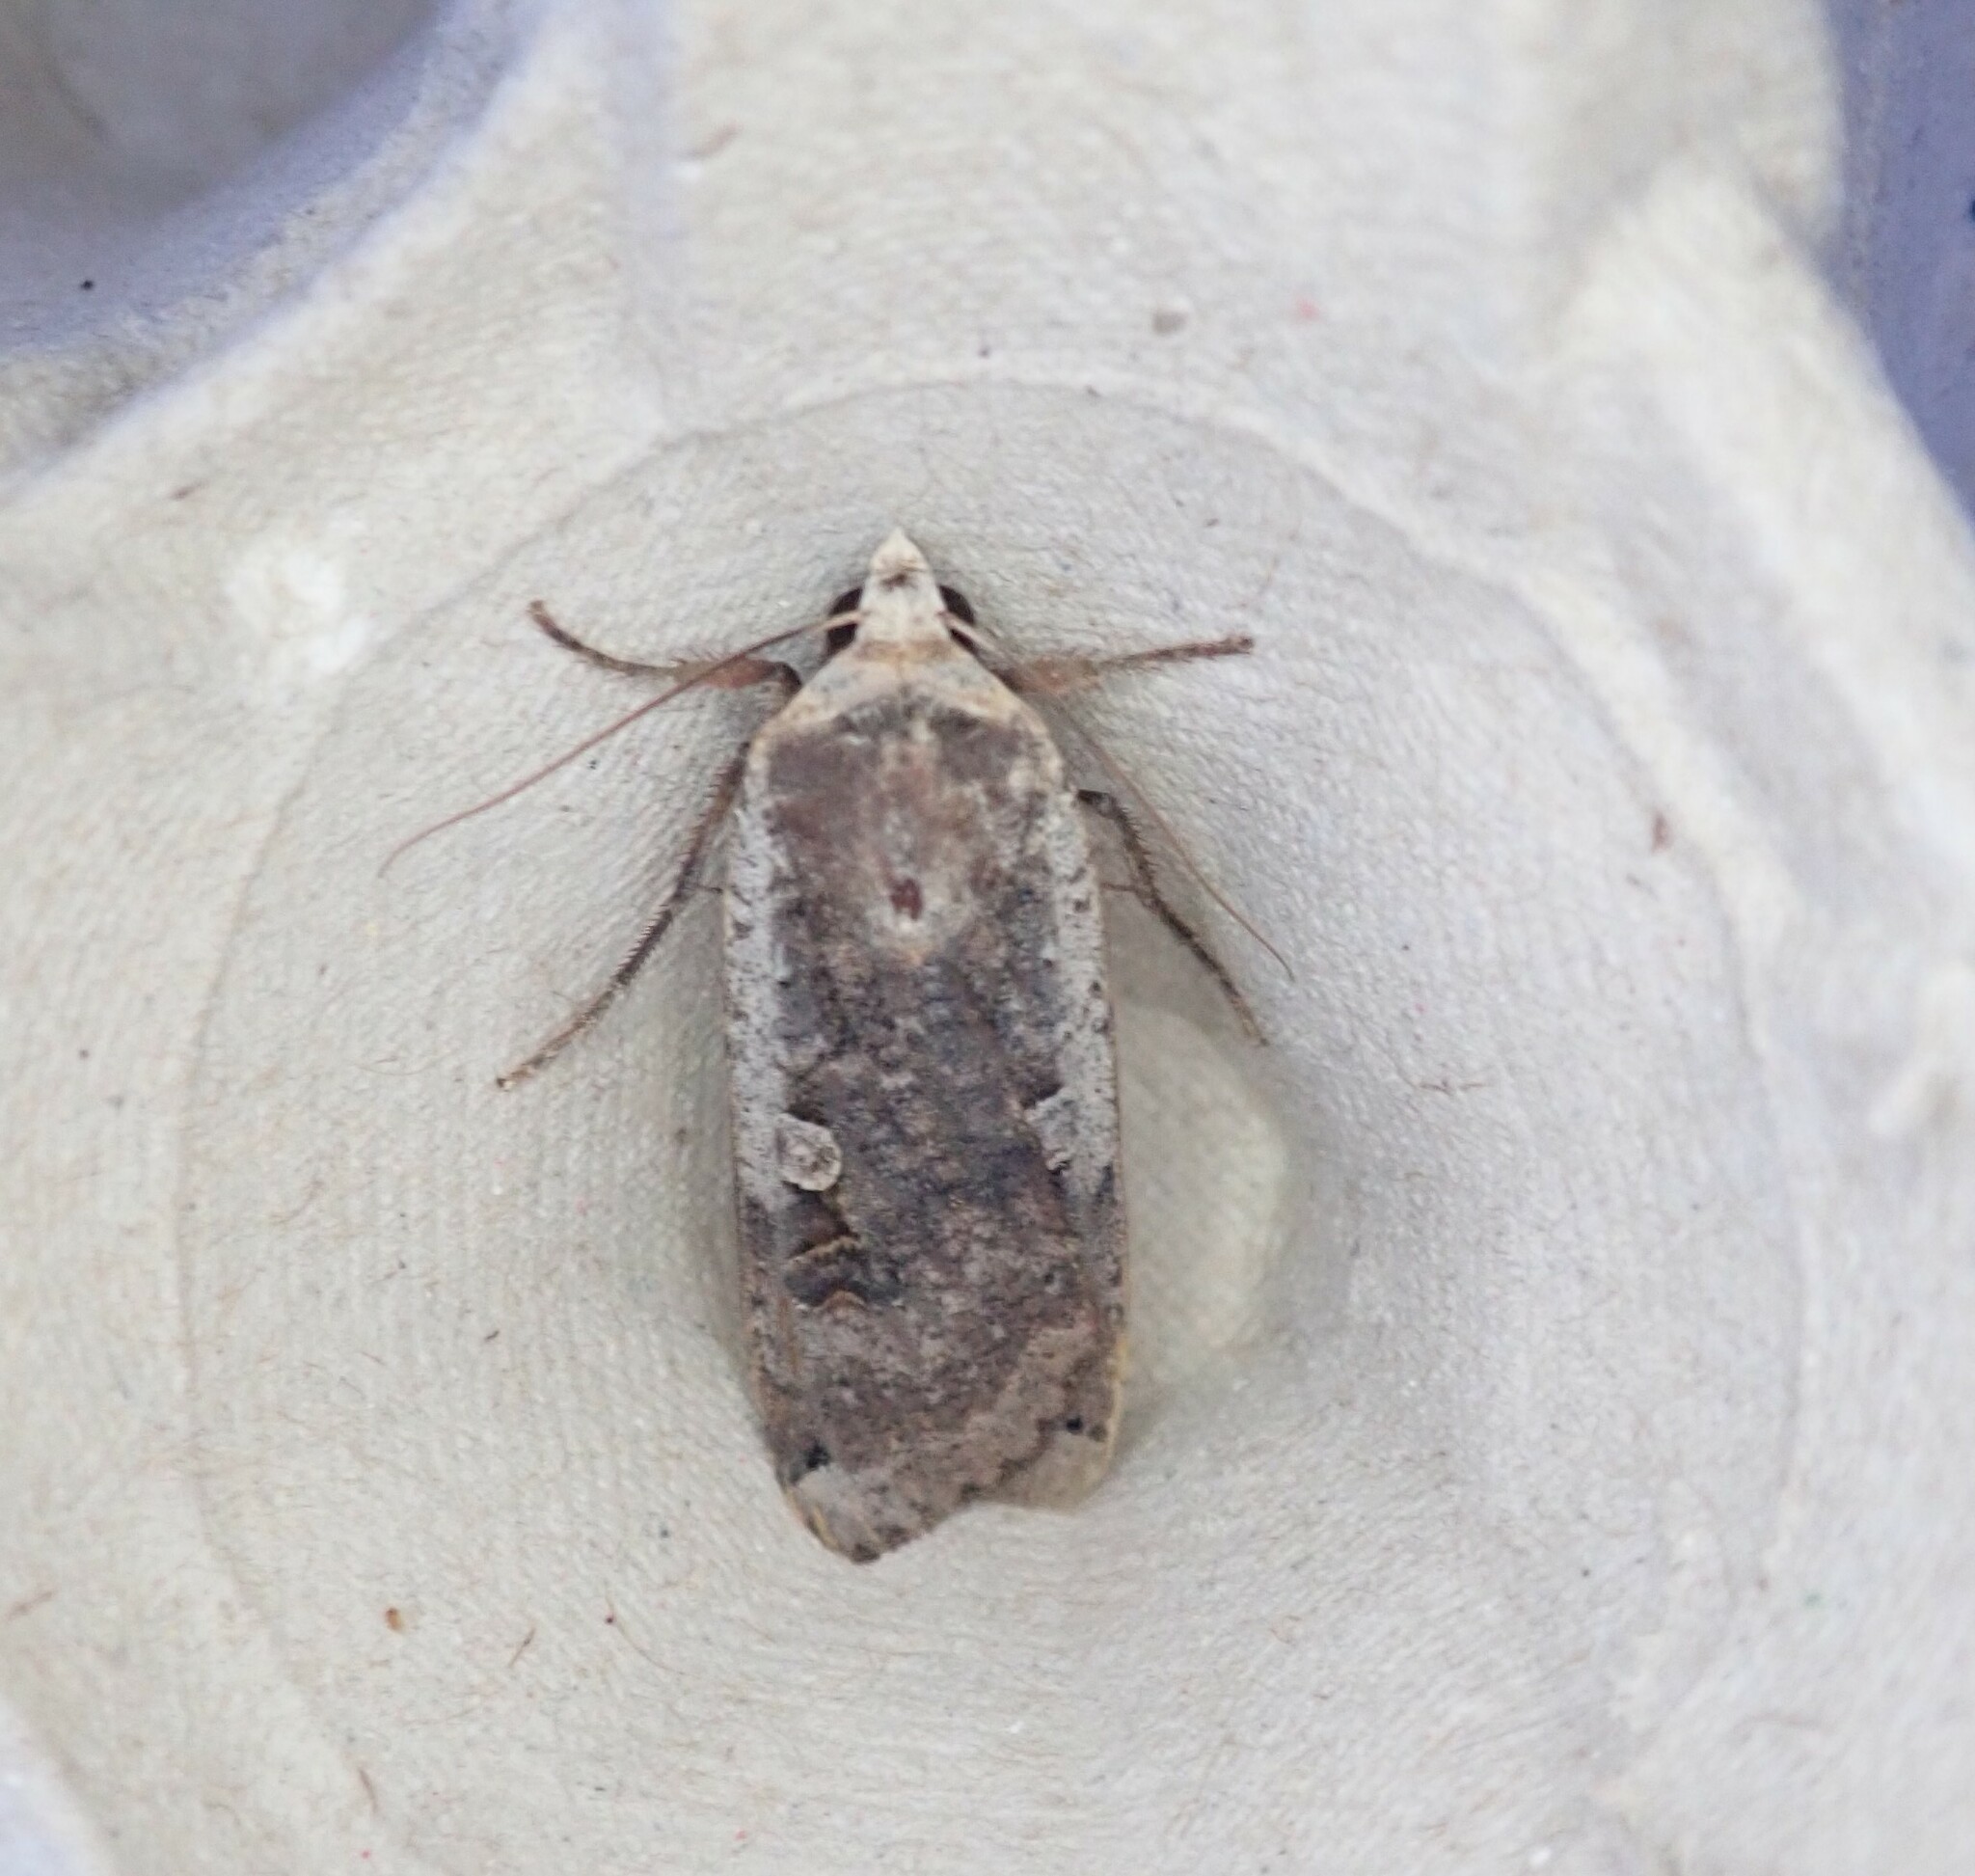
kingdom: Animalia
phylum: Arthropoda
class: Insecta
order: Lepidoptera
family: Noctuidae
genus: Noctua
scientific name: Noctua pronuba
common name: Large yellow underwing
